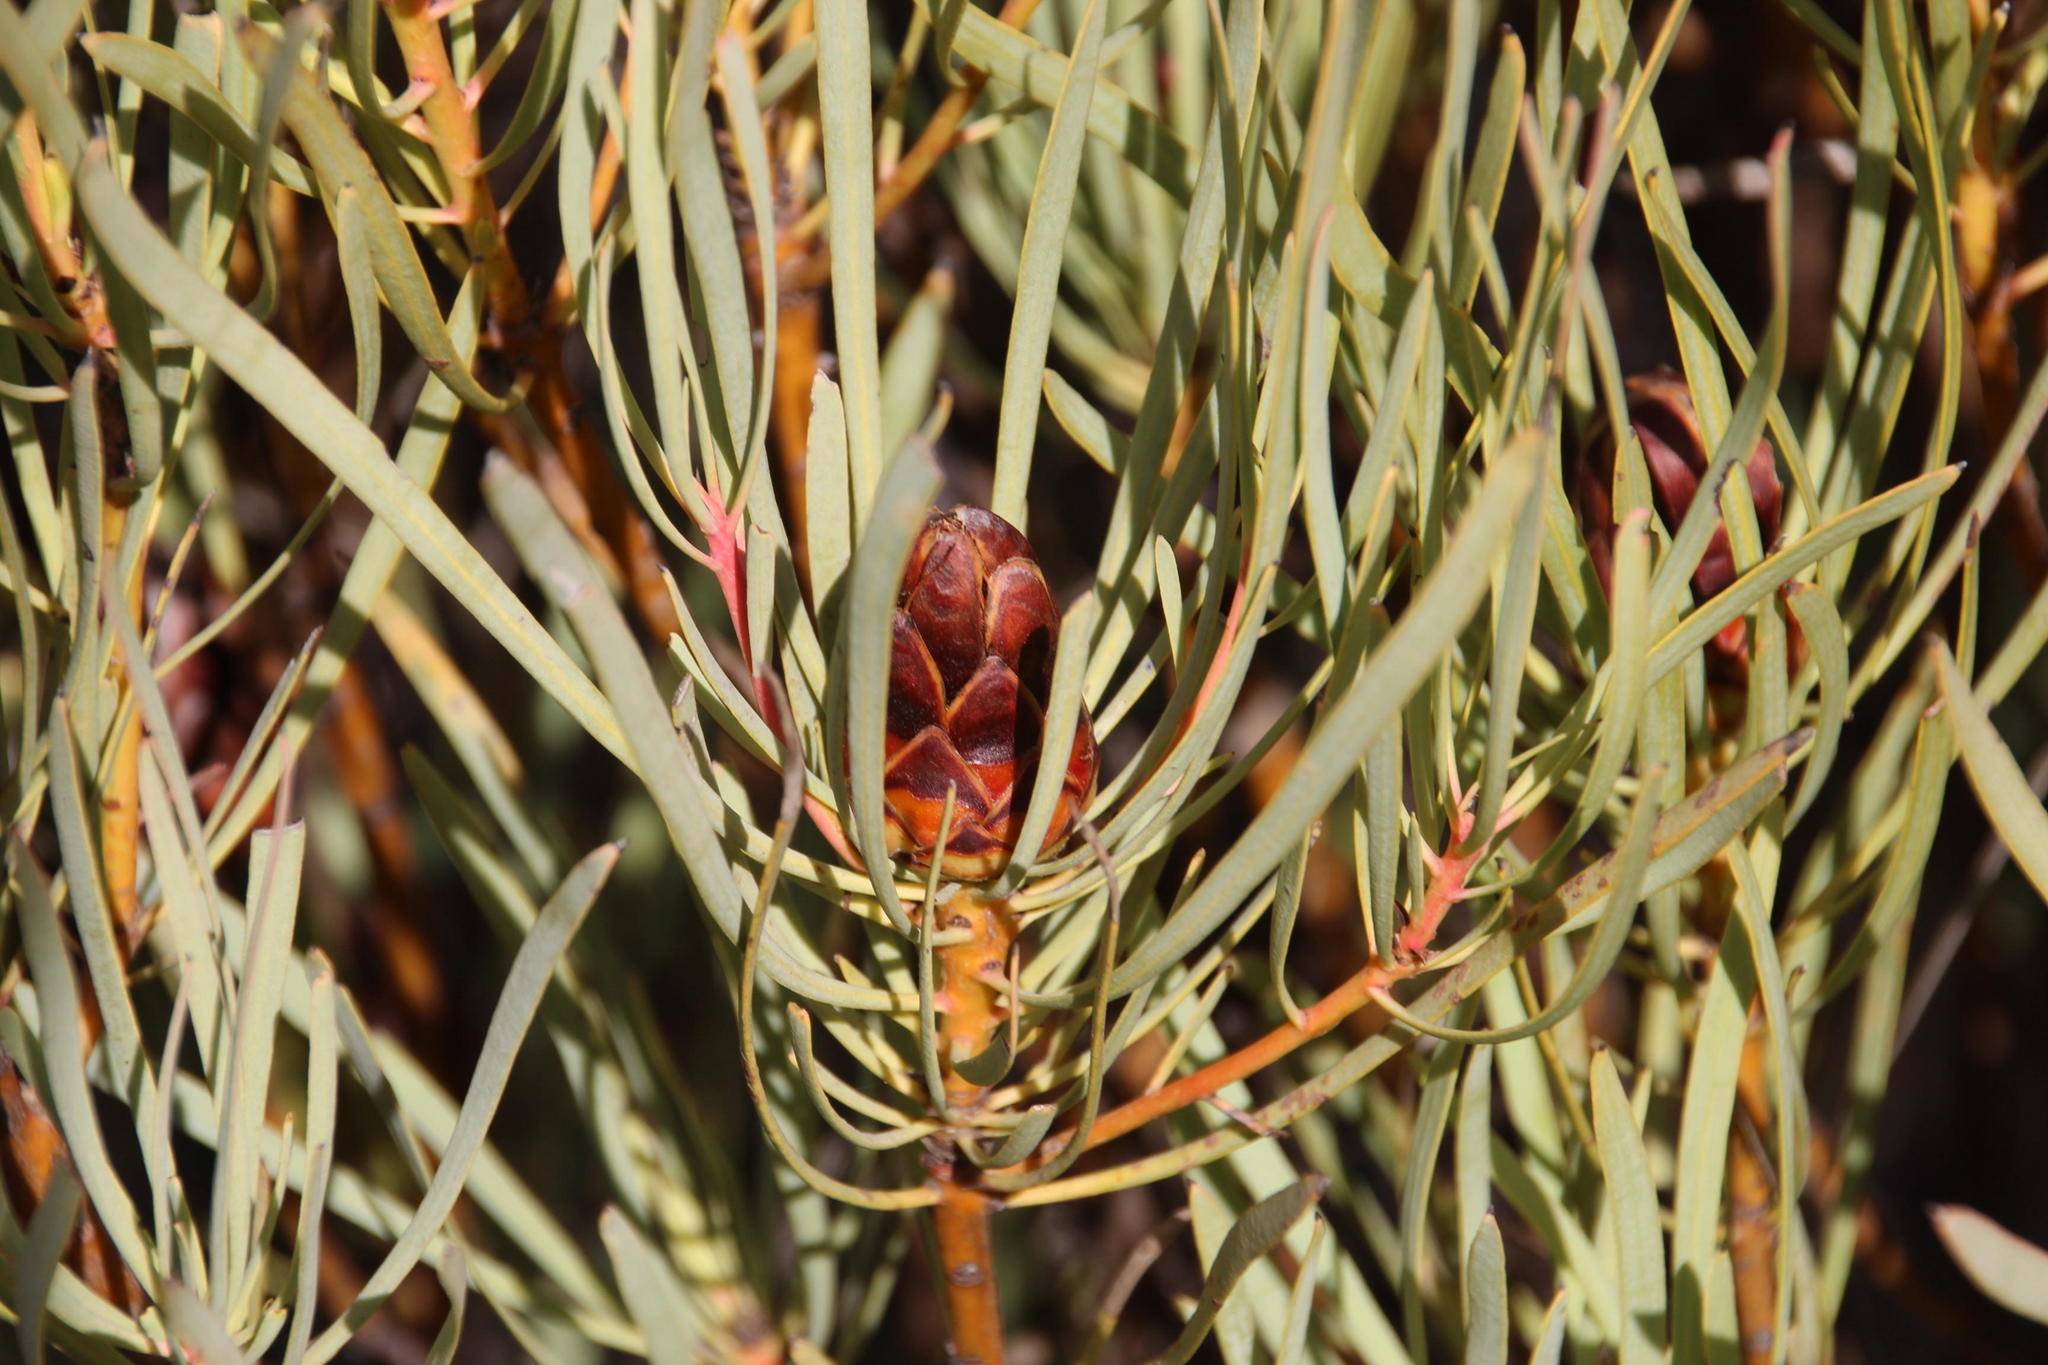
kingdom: Plantae
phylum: Tracheophyta
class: Magnoliopsida
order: Proteales
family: Proteaceae
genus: Protea
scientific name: Protea acuminata
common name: Black-rim sugarbush
